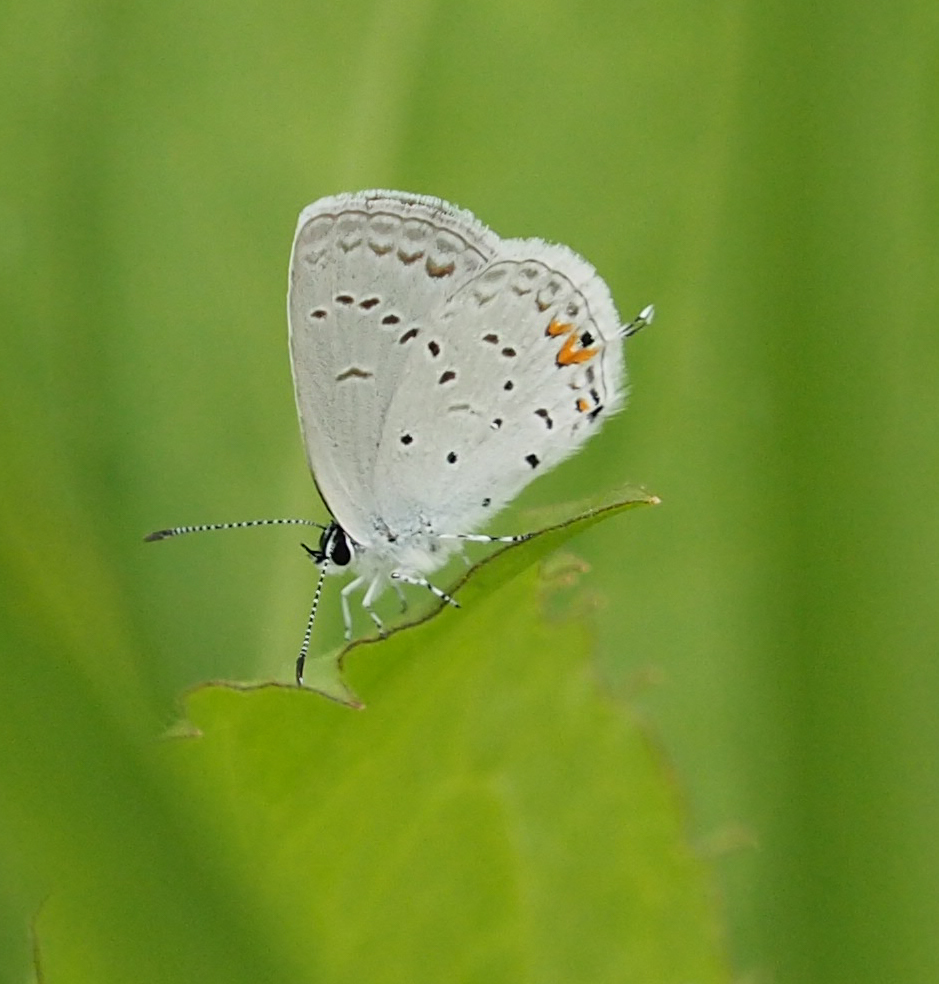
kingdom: Animalia
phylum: Arthropoda
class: Insecta
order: Lepidoptera
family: Lycaenidae
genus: Elkalyce
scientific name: Elkalyce comyntas
